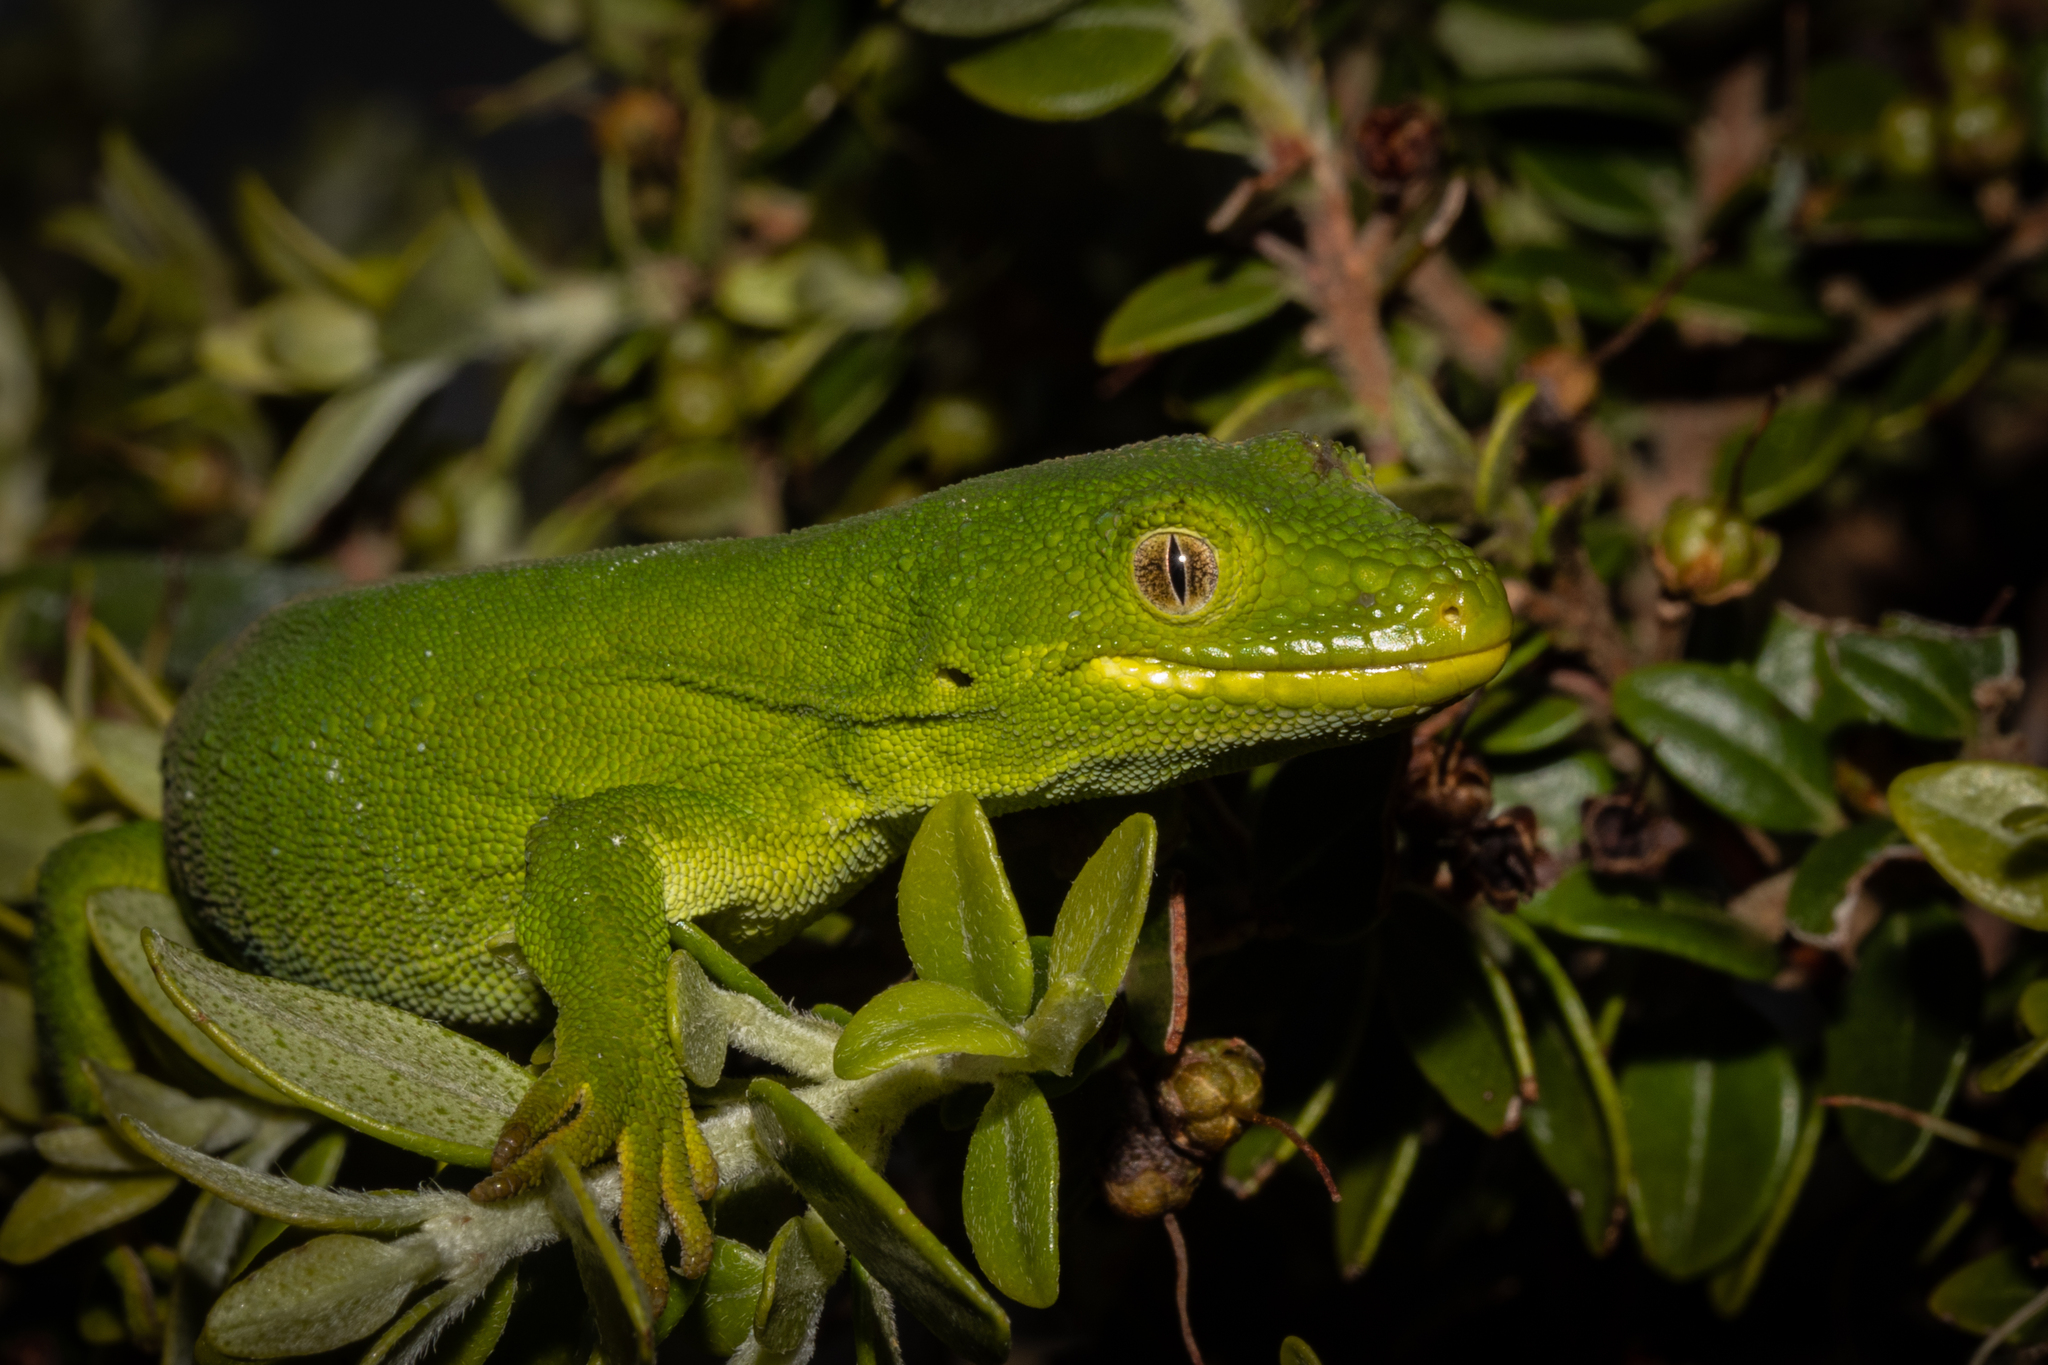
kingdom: Animalia
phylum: Chordata
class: Squamata
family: Diplodactylidae
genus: Naultinus
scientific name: Naultinus manukanus
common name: Marlborough green gecko
